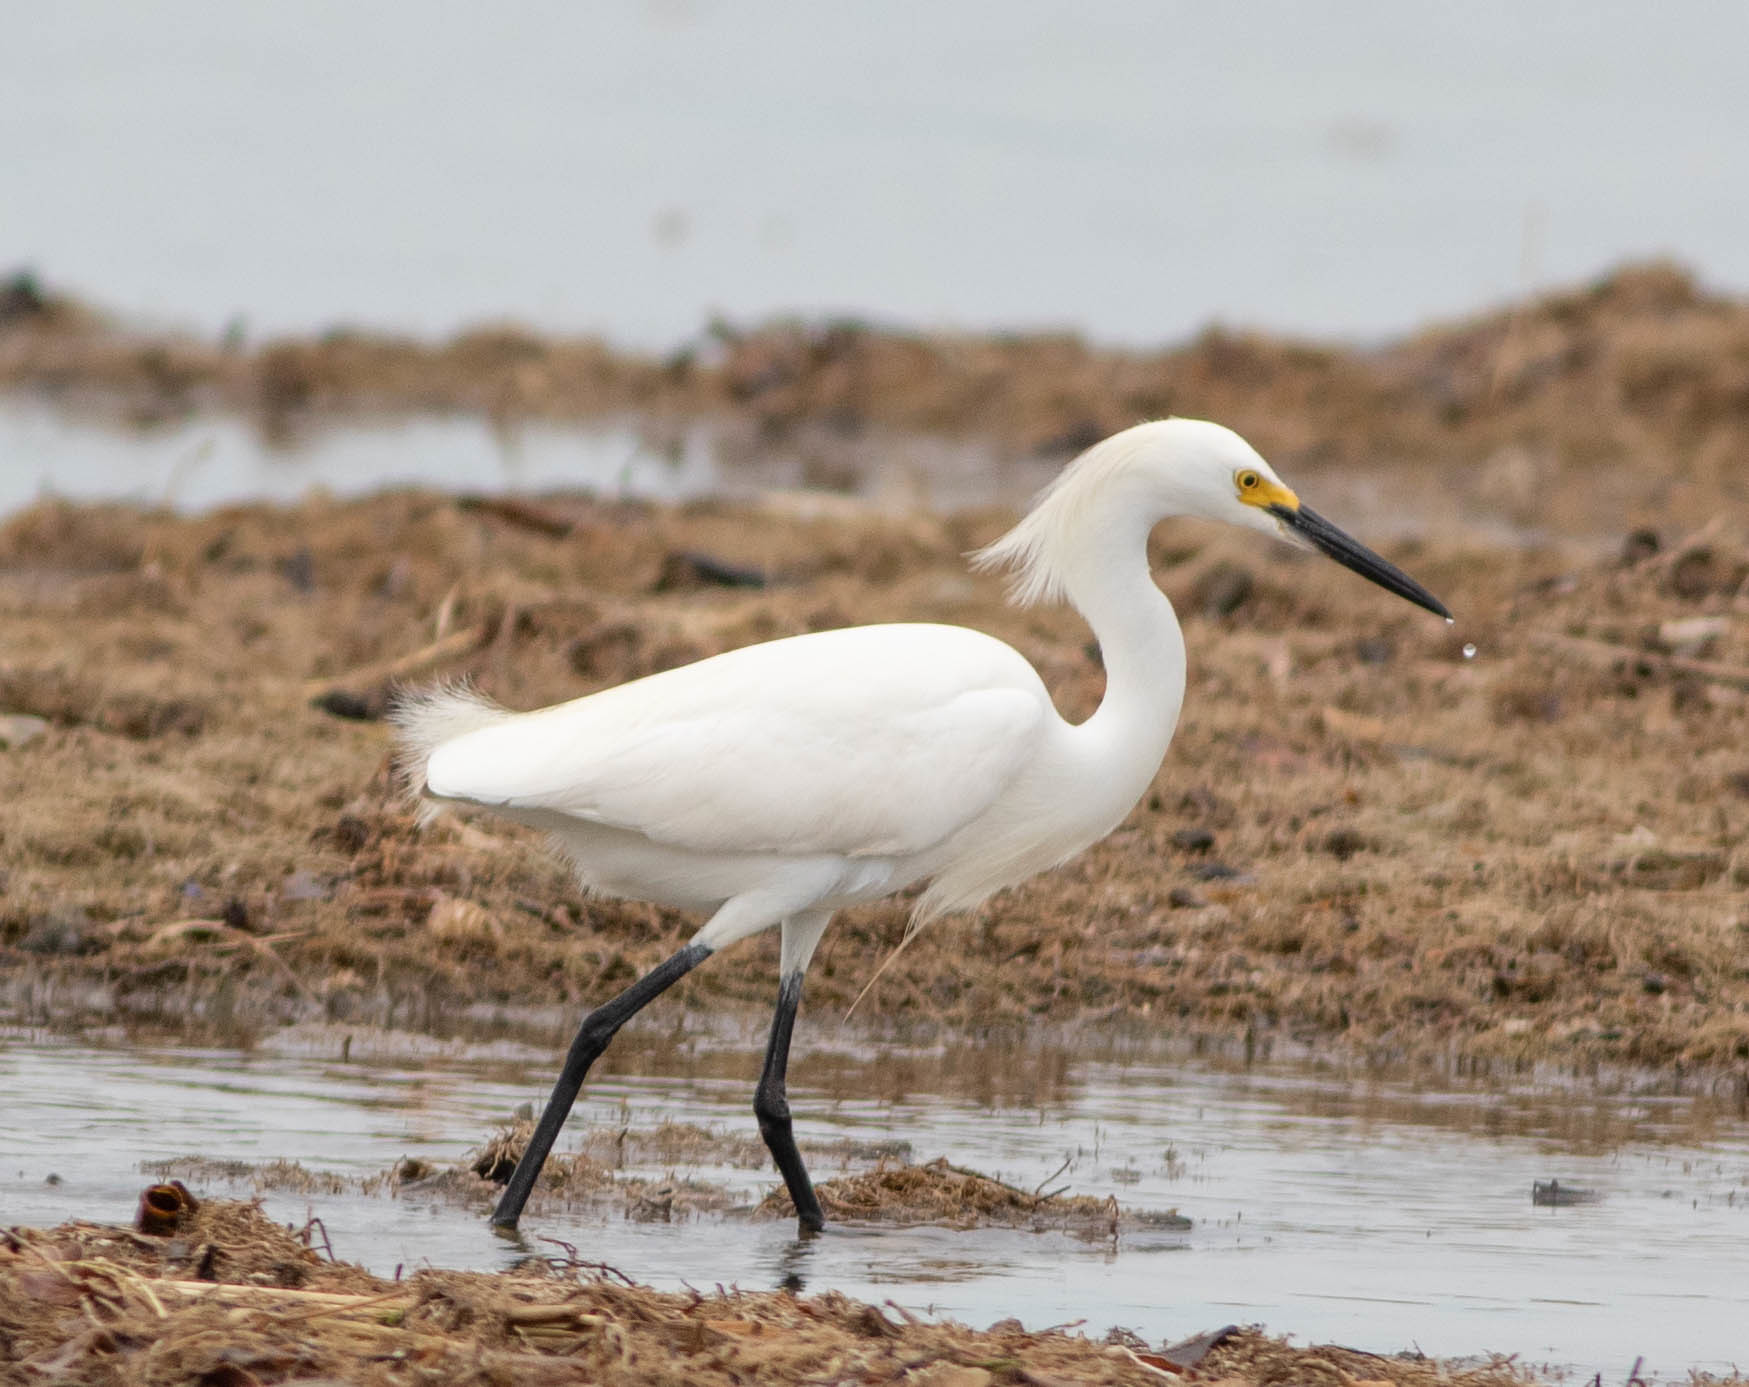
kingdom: Animalia
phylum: Chordata
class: Aves
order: Pelecaniformes
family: Ardeidae
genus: Egretta
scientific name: Egretta thula
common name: Snowy egret
